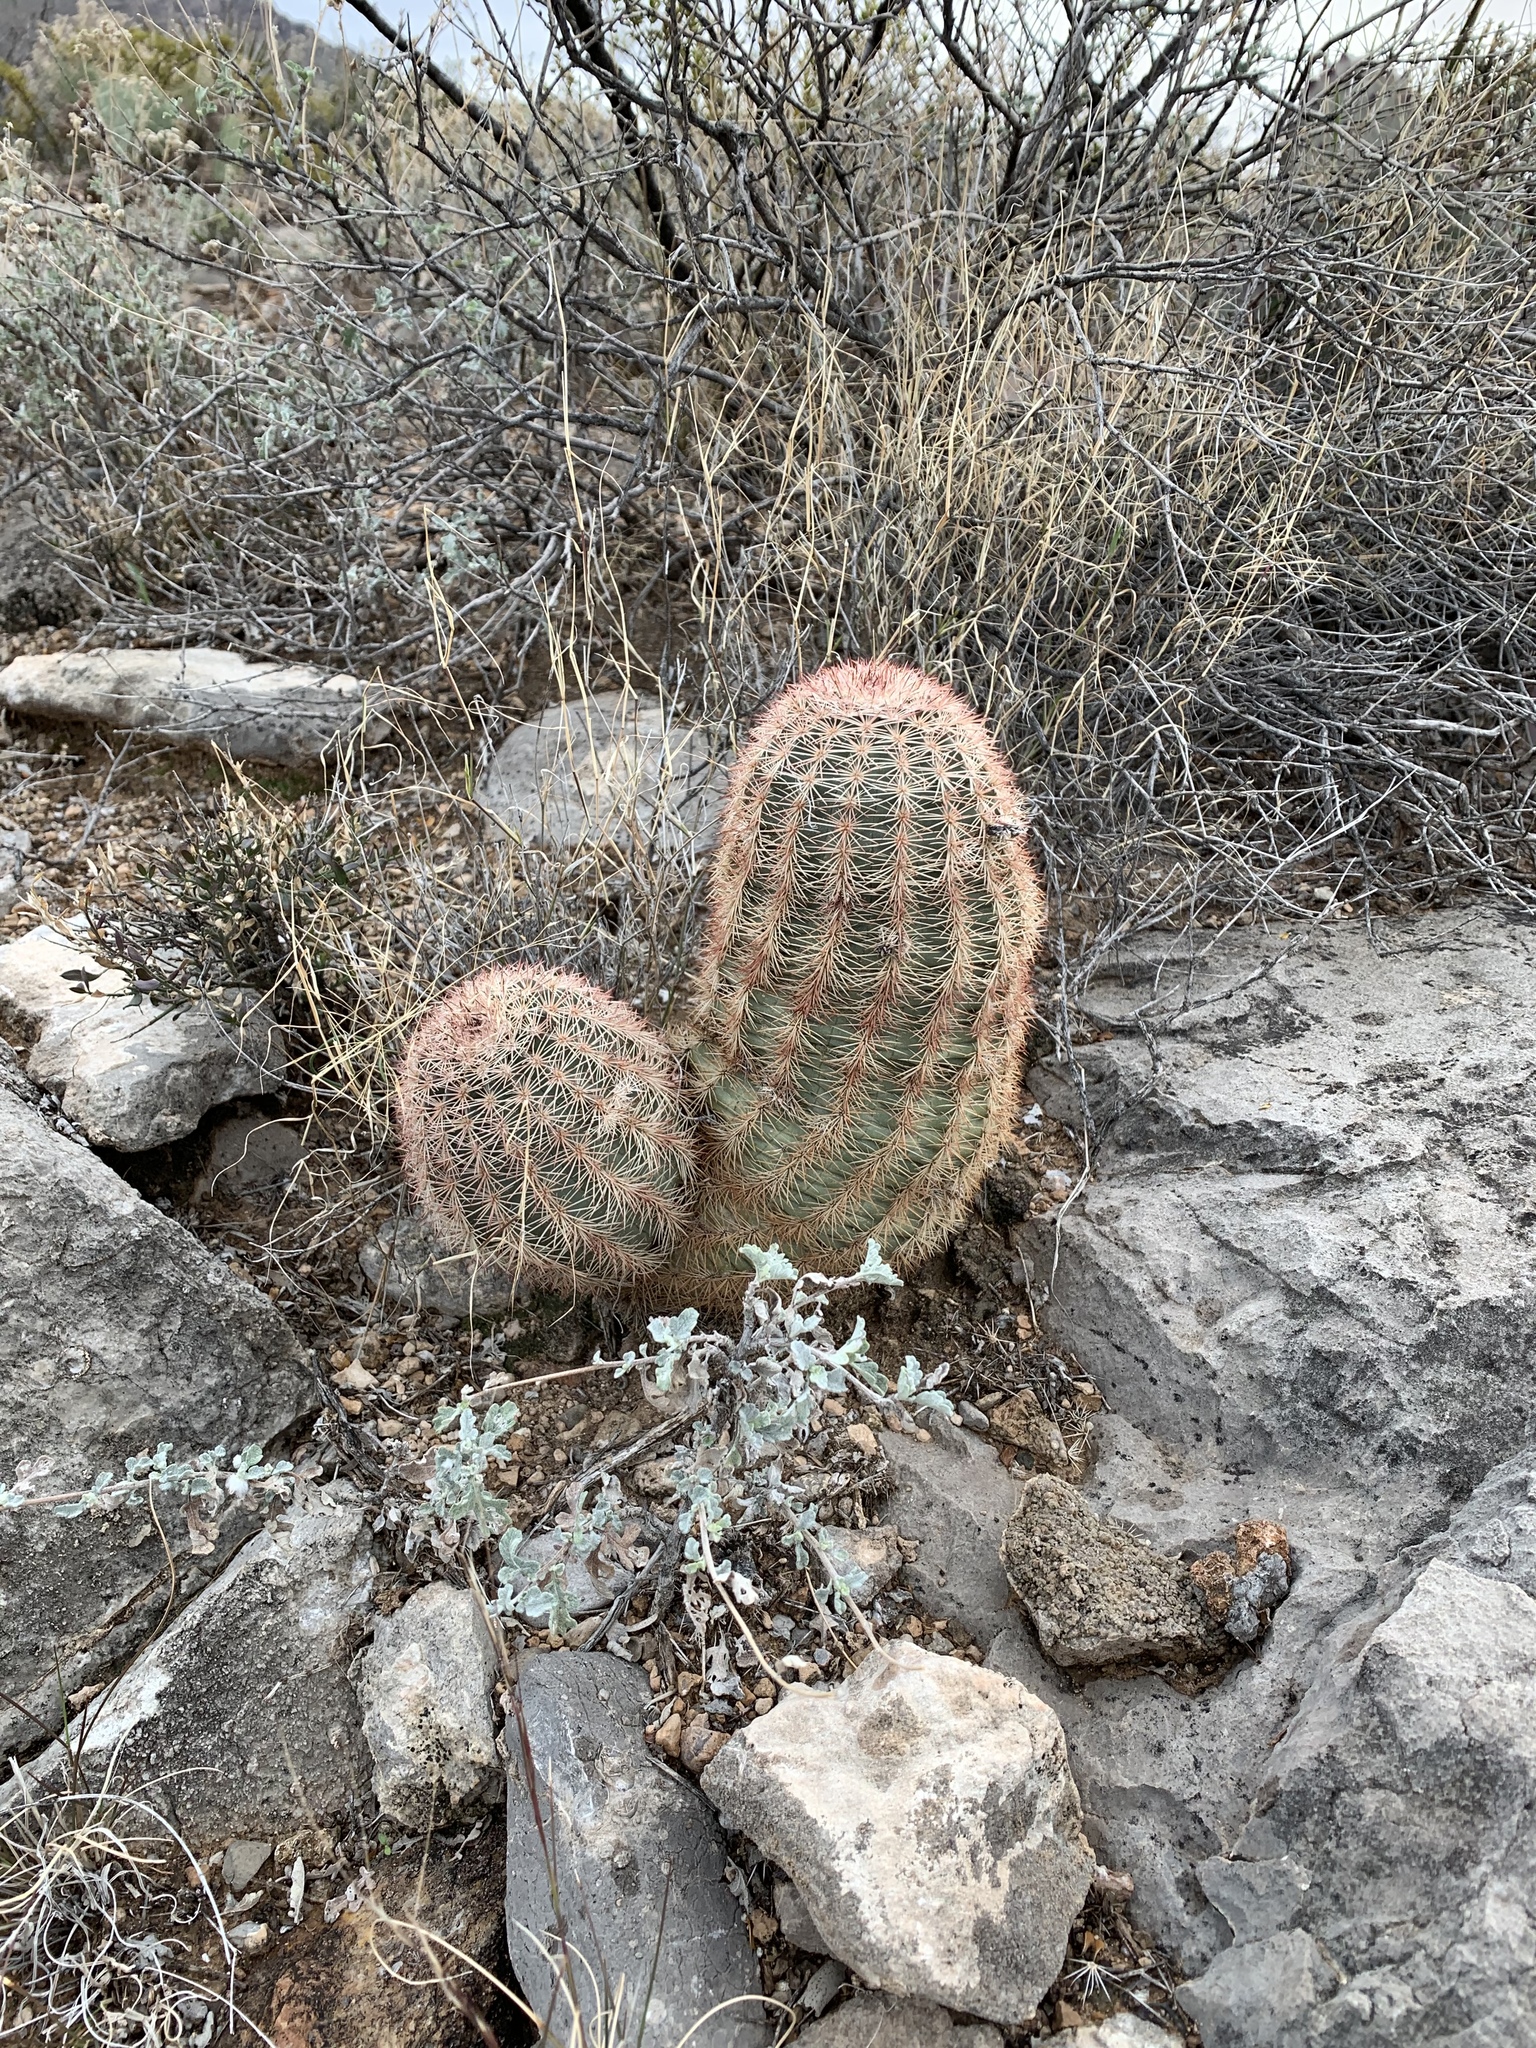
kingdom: Plantae
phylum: Tracheophyta
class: Magnoliopsida
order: Caryophyllales
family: Cactaceae
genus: Echinocereus
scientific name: Echinocereus dasyacanthus
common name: Spiny hedgehog cactus
